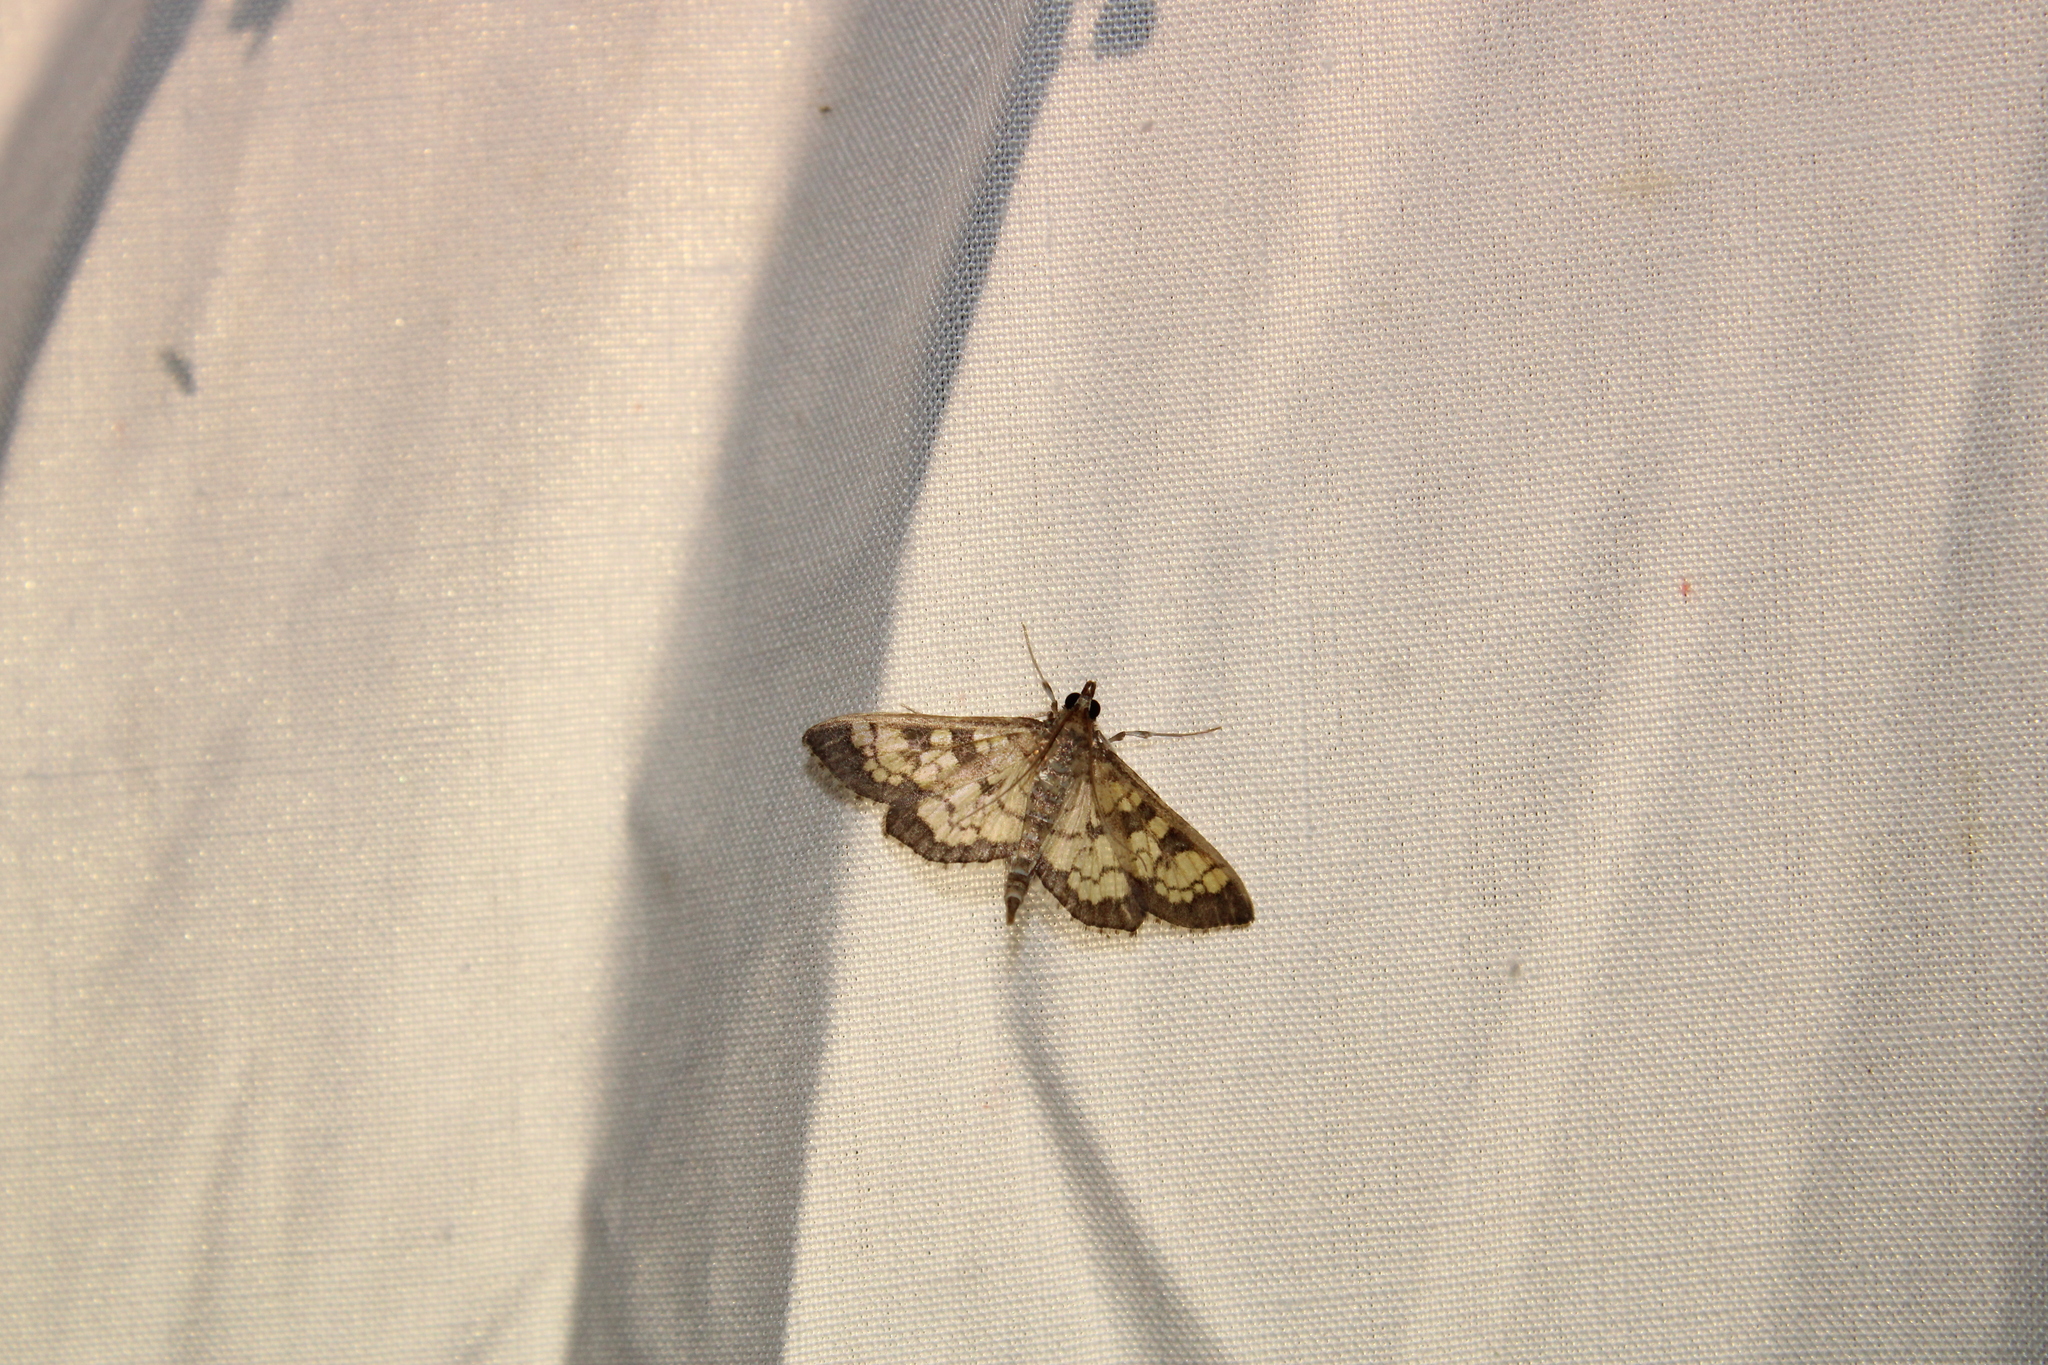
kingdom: Animalia
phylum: Arthropoda
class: Insecta
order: Lepidoptera
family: Crambidae
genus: Epipagis
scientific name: Epipagis adipaloides
